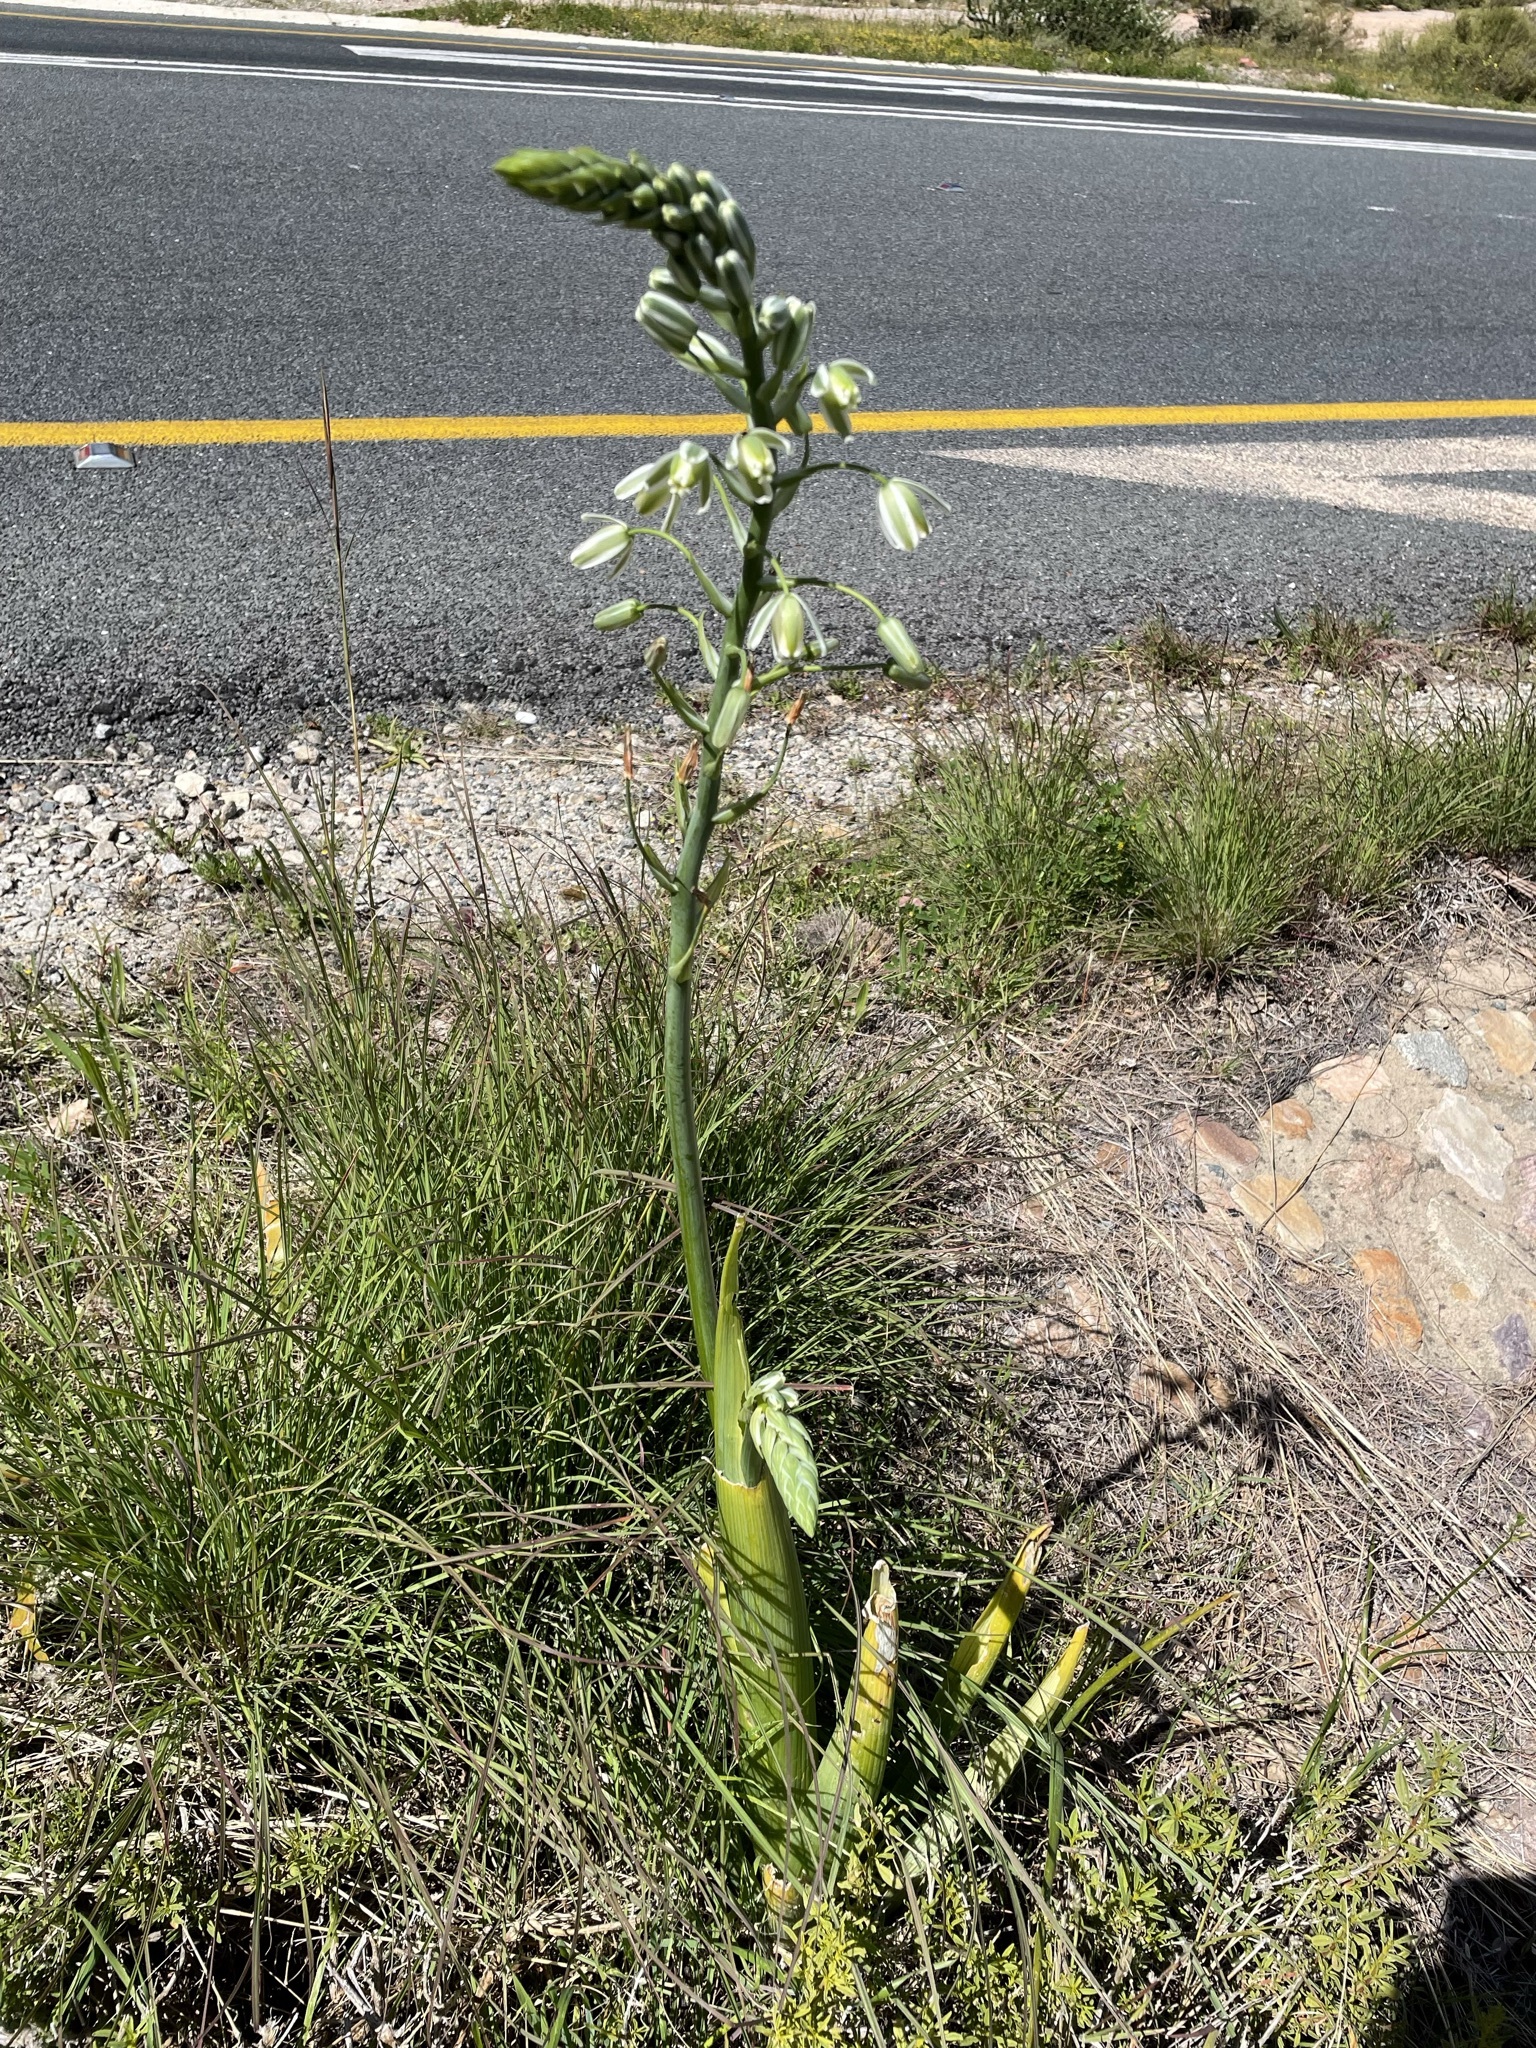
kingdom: Plantae
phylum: Tracheophyta
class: Liliopsida
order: Asparagales
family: Asparagaceae
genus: Albuca
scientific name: Albuca canadensis
